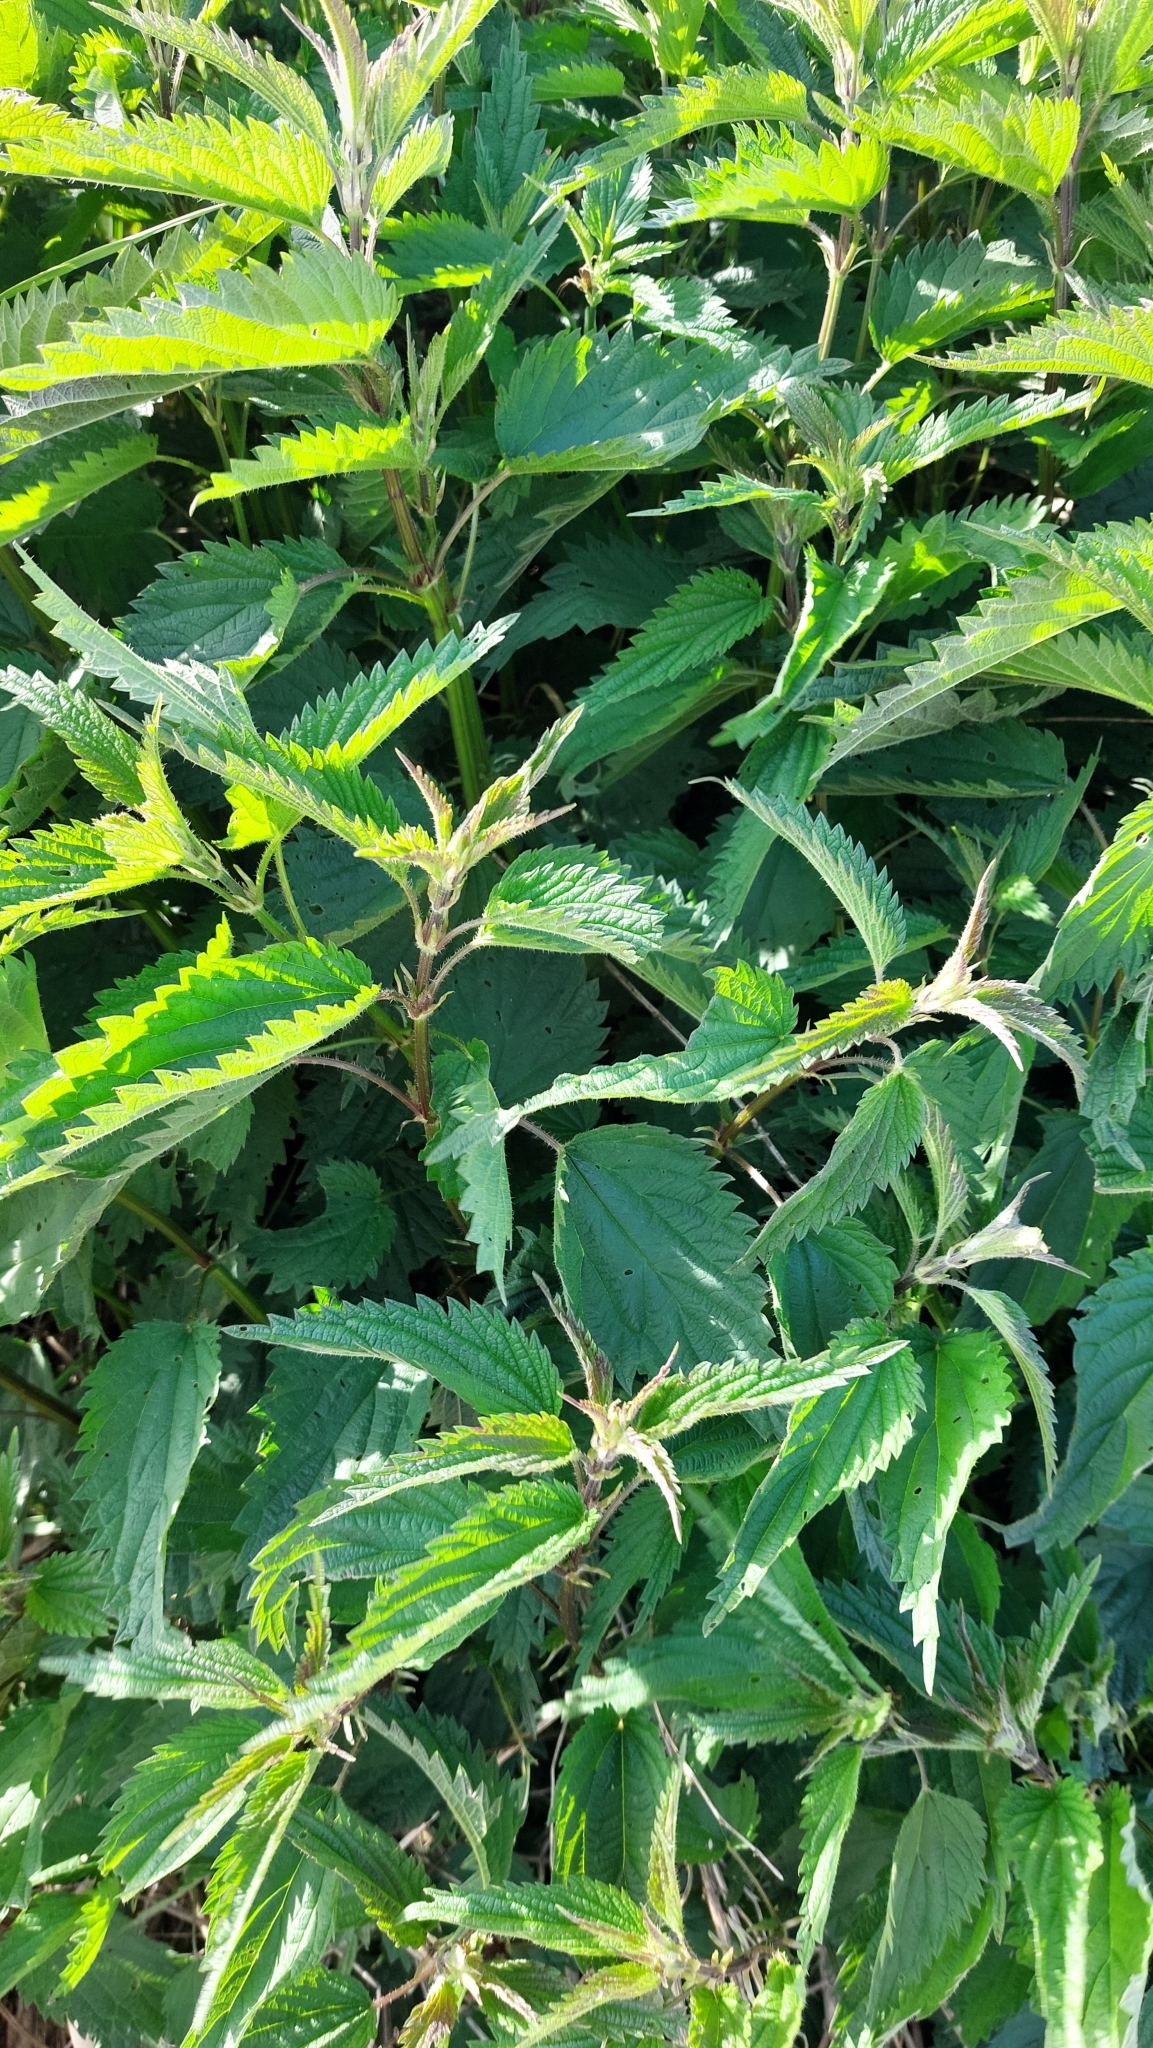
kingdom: Plantae
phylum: Tracheophyta
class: Magnoliopsida
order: Rosales
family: Urticaceae
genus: Urtica
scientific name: Urtica dioica
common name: Common nettle
